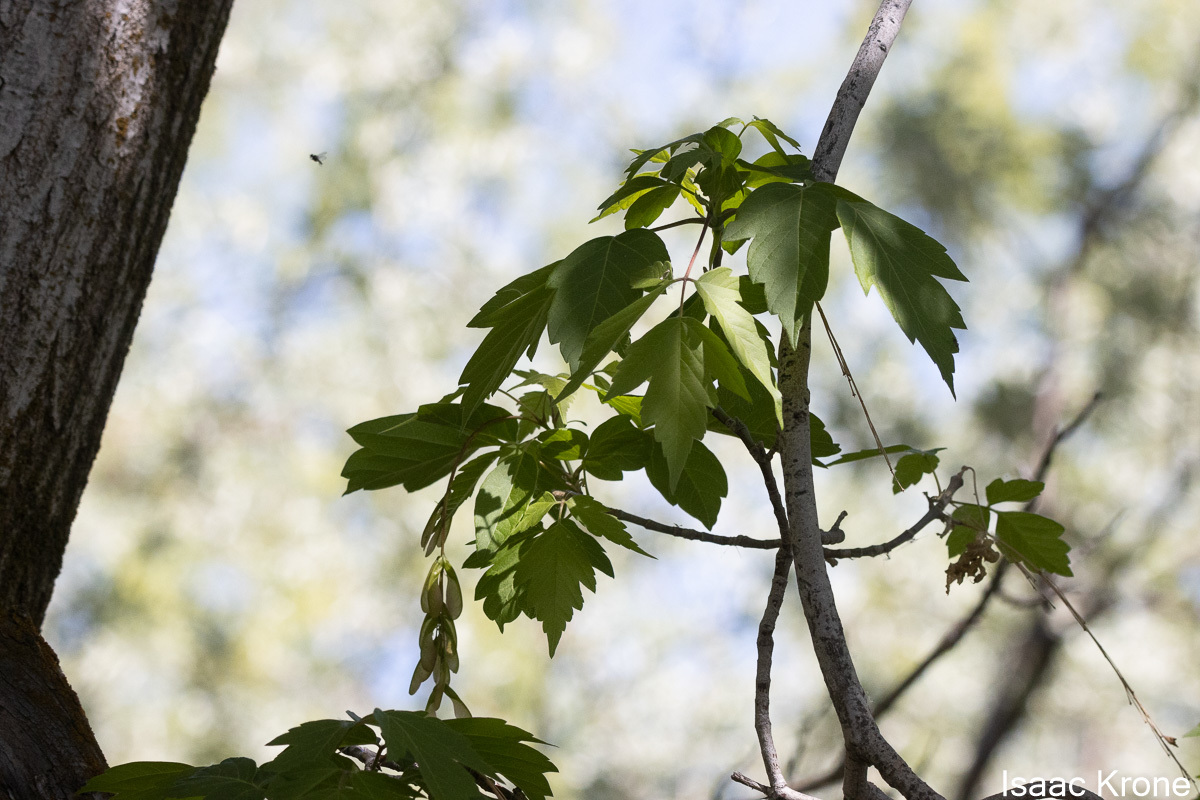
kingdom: Plantae
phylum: Tracheophyta
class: Magnoliopsida
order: Sapindales
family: Sapindaceae
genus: Acer
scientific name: Acer negundo
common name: Ashleaf maple
